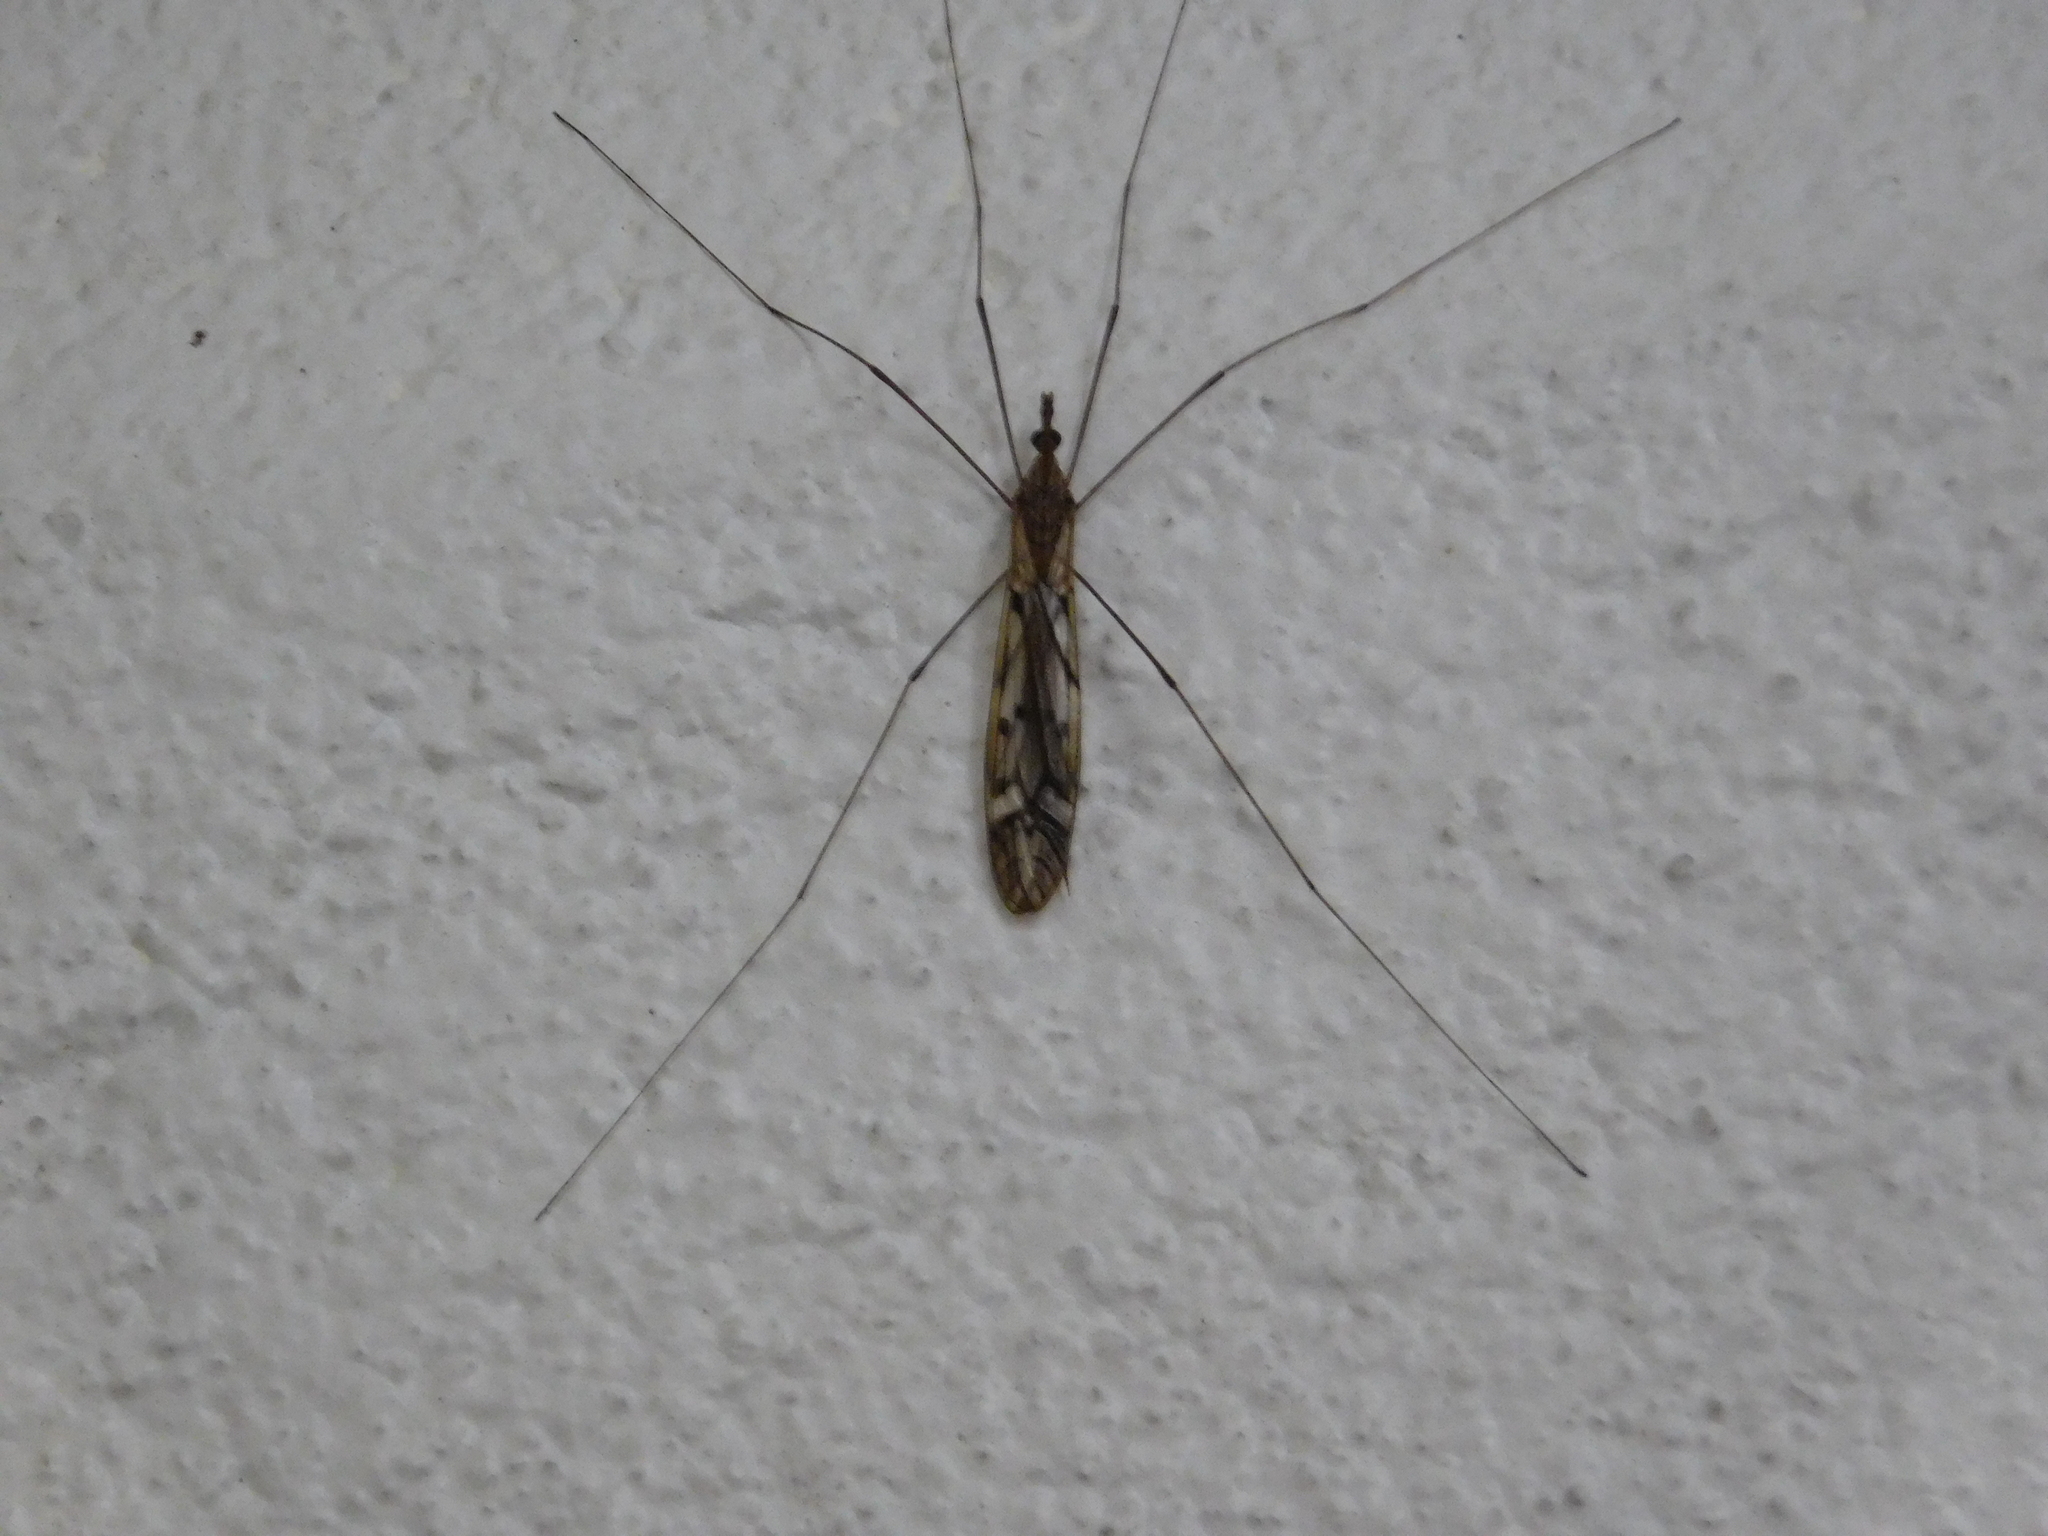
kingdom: Animalia
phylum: Arthropoda
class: Insecta
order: Diptera
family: Tipulidae
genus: Zelandotipula
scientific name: Zelandotipula novarae
